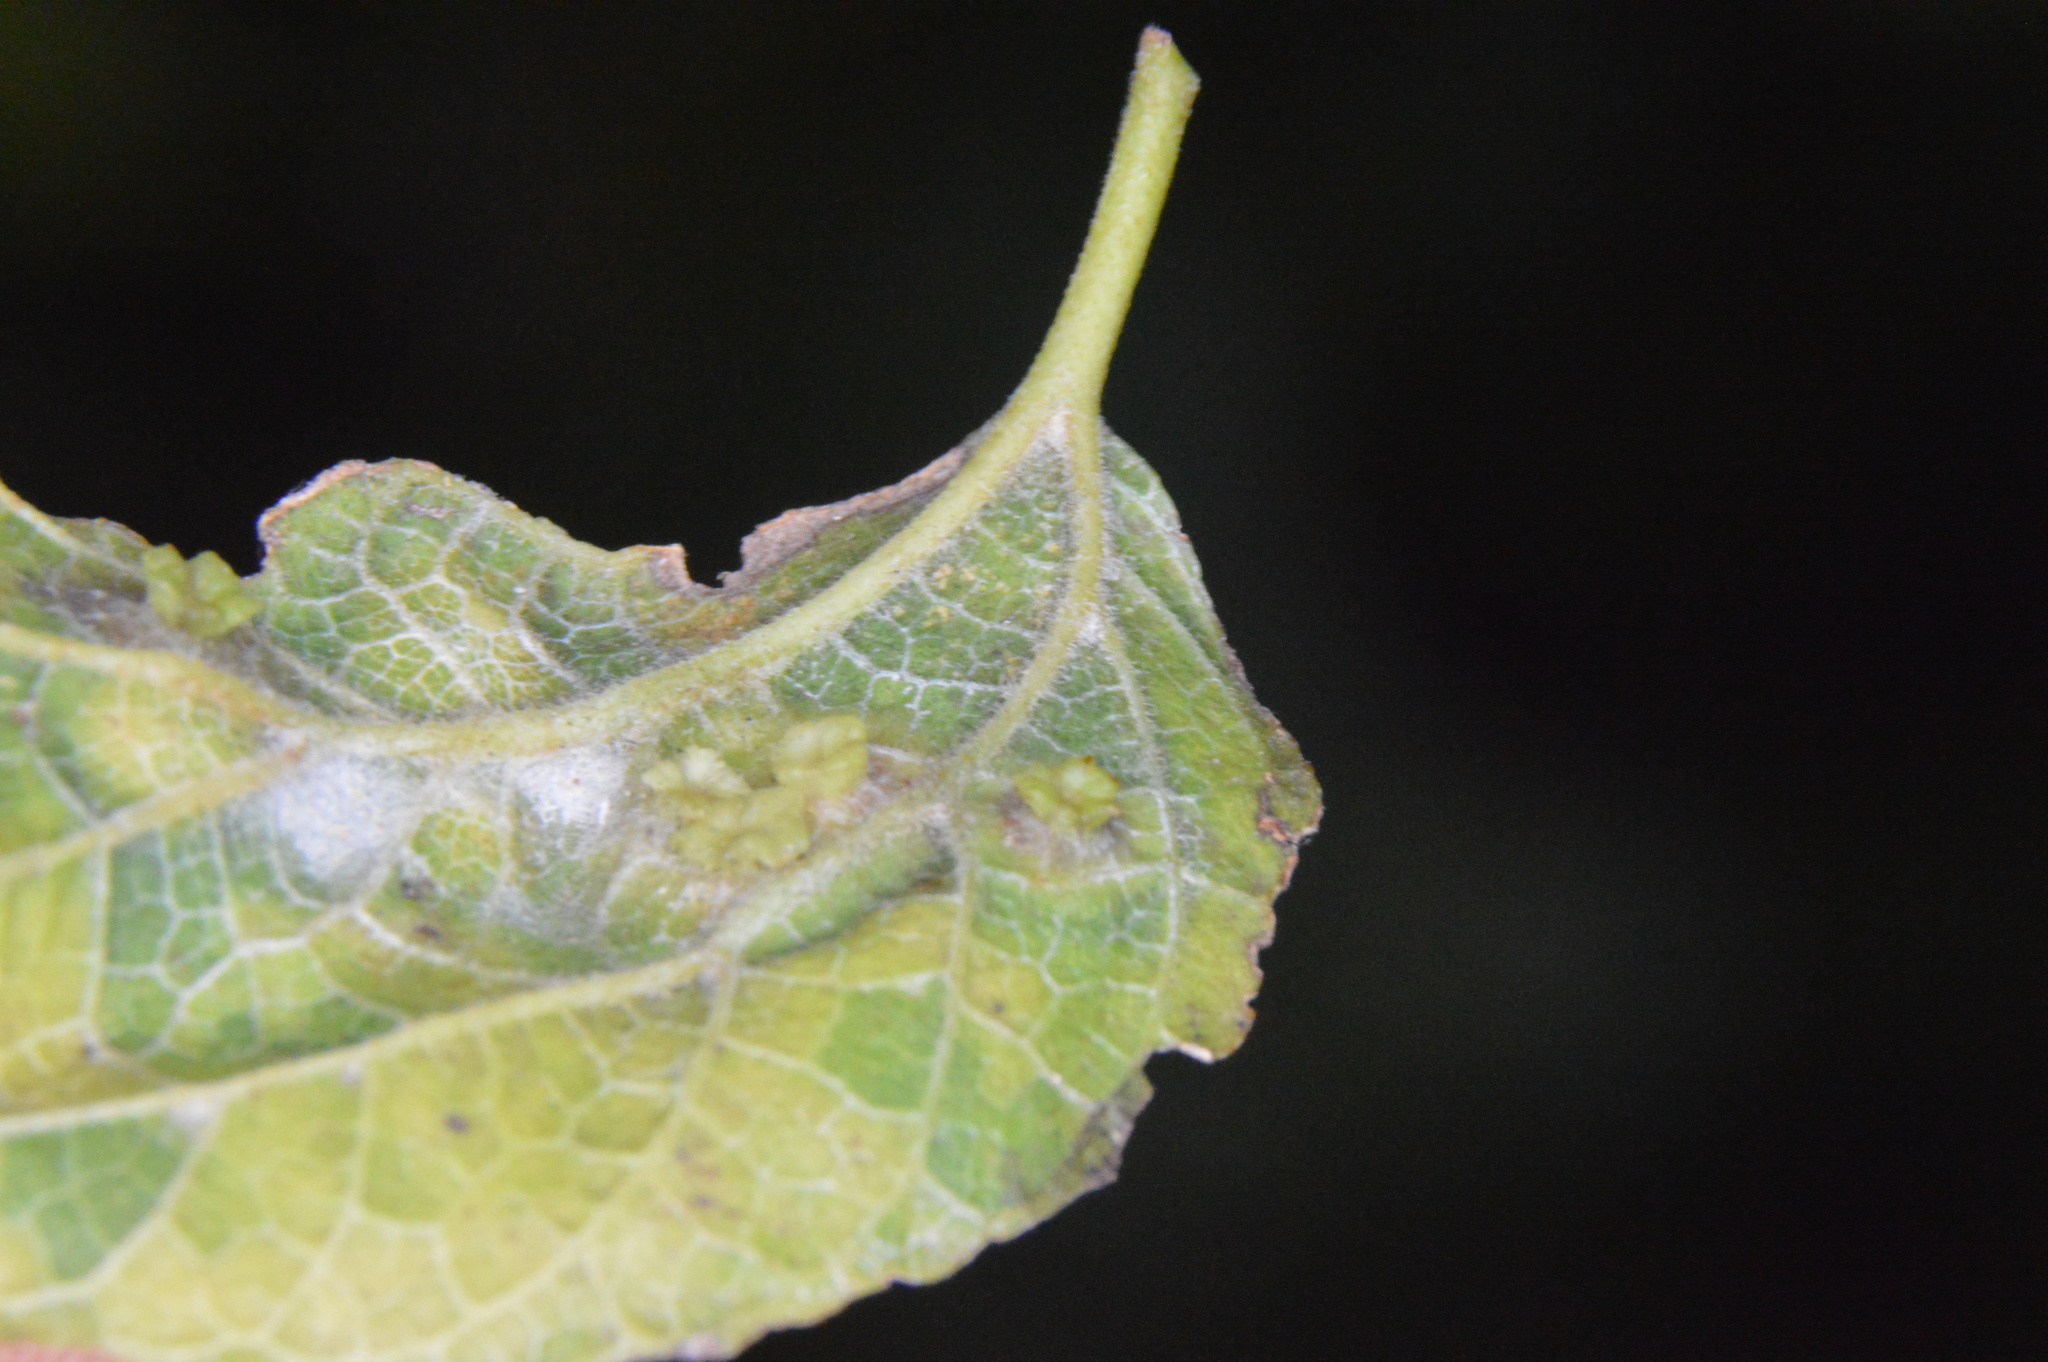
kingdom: Animalia
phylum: Arthropoda
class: Insecta
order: Hemiptera
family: Aphalaridae
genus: Pachypsylla
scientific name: Pachypsylla celtidisasterisca
